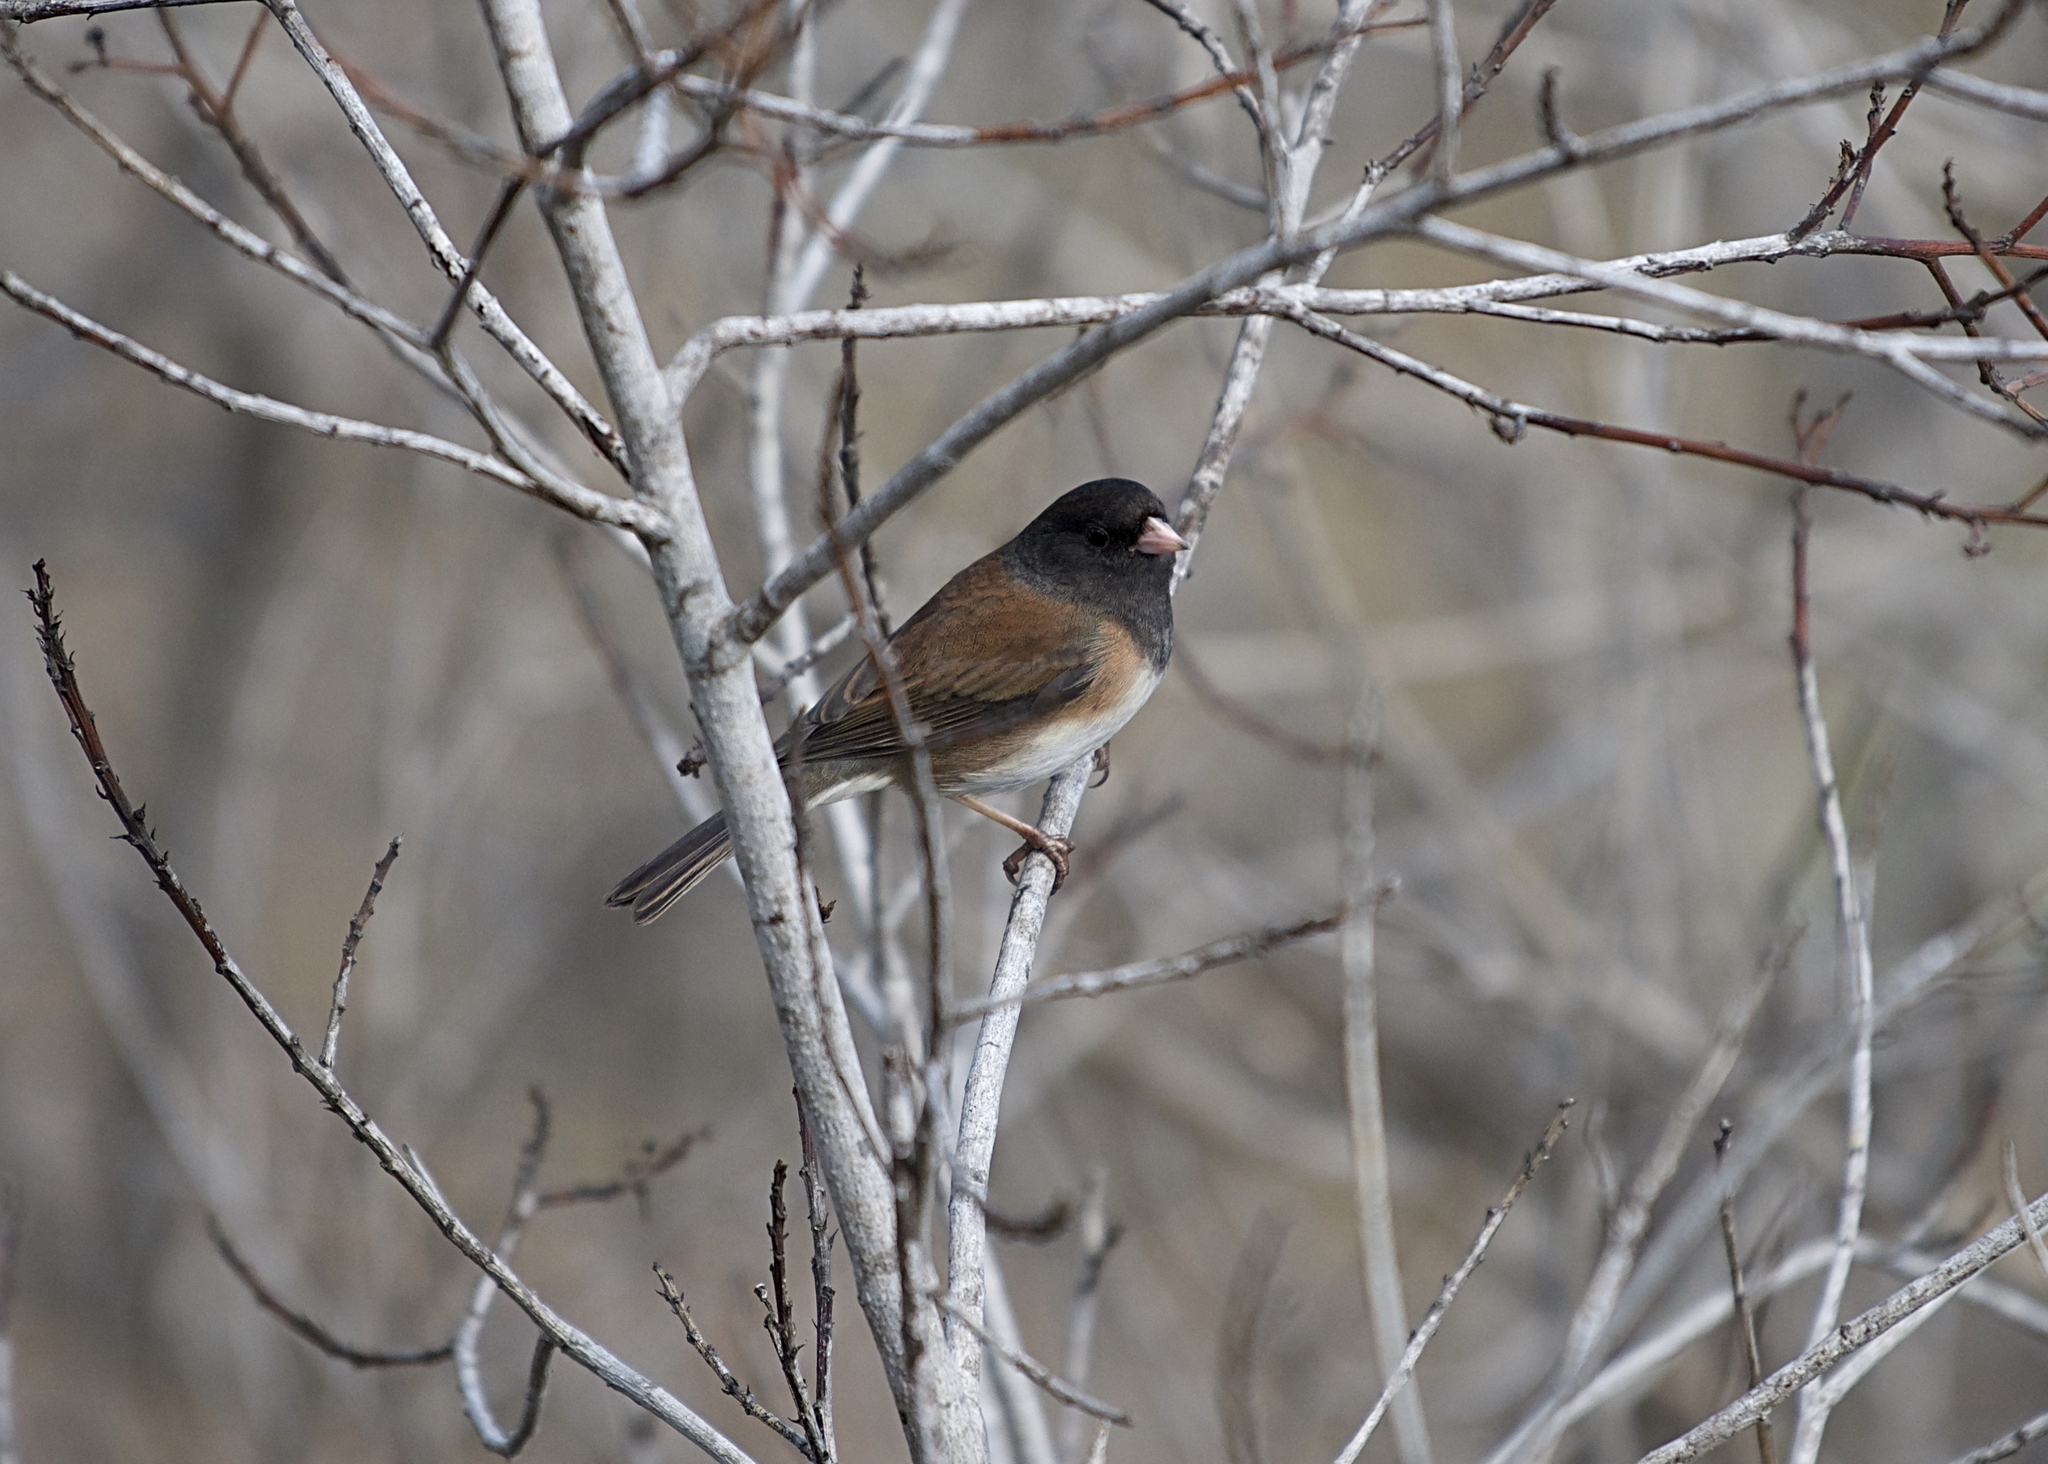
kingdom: Animalia
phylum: Chordata
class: Aves
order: Passeriformes
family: Passerellidae
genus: Junco
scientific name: Junco hyemalis
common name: Dark-eyed junco
